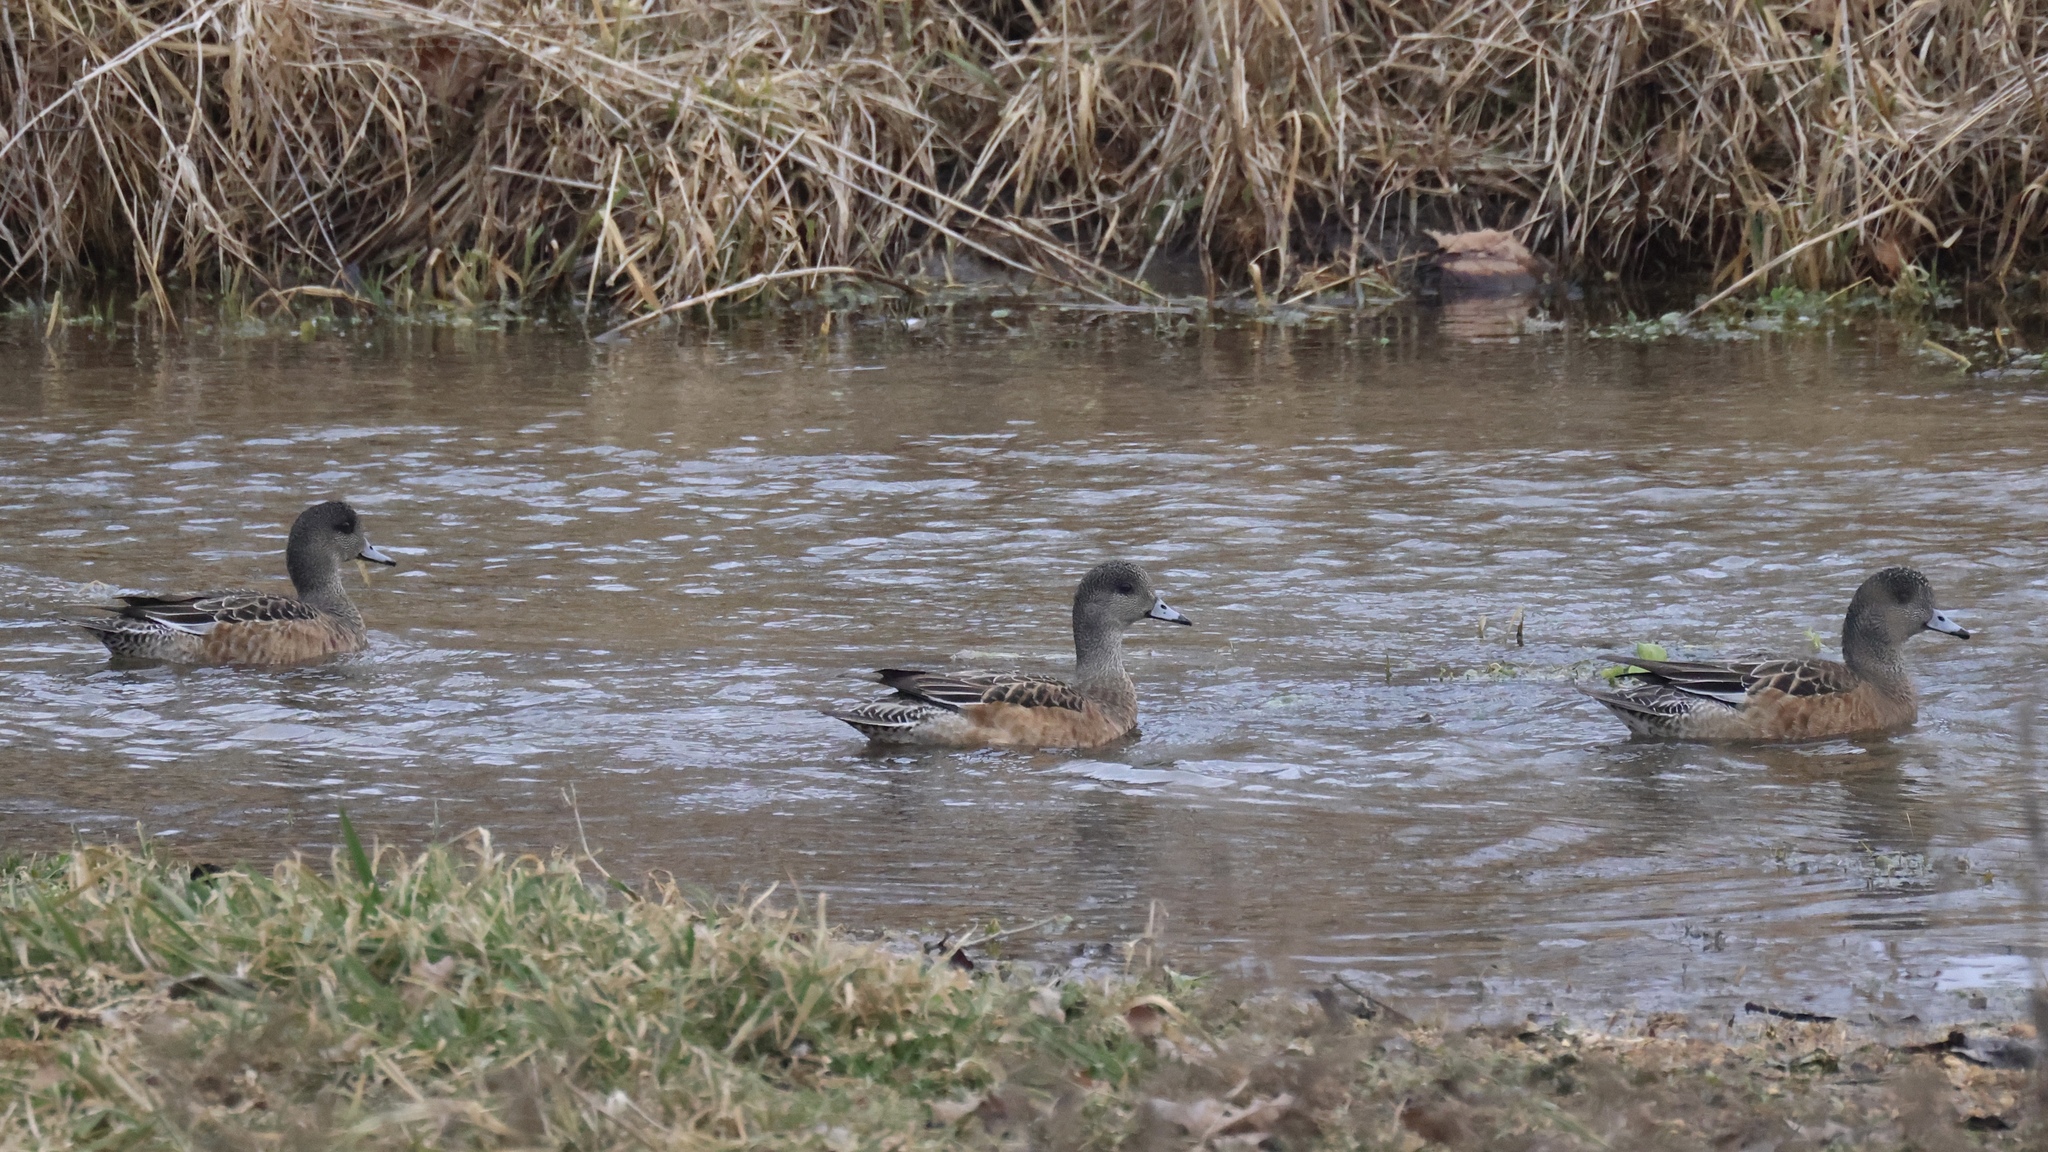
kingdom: Animalia
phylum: Chordata
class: Aves
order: Anseriformes
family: Anatidae
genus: Mareca
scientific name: Mareca americana
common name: American wigeon
